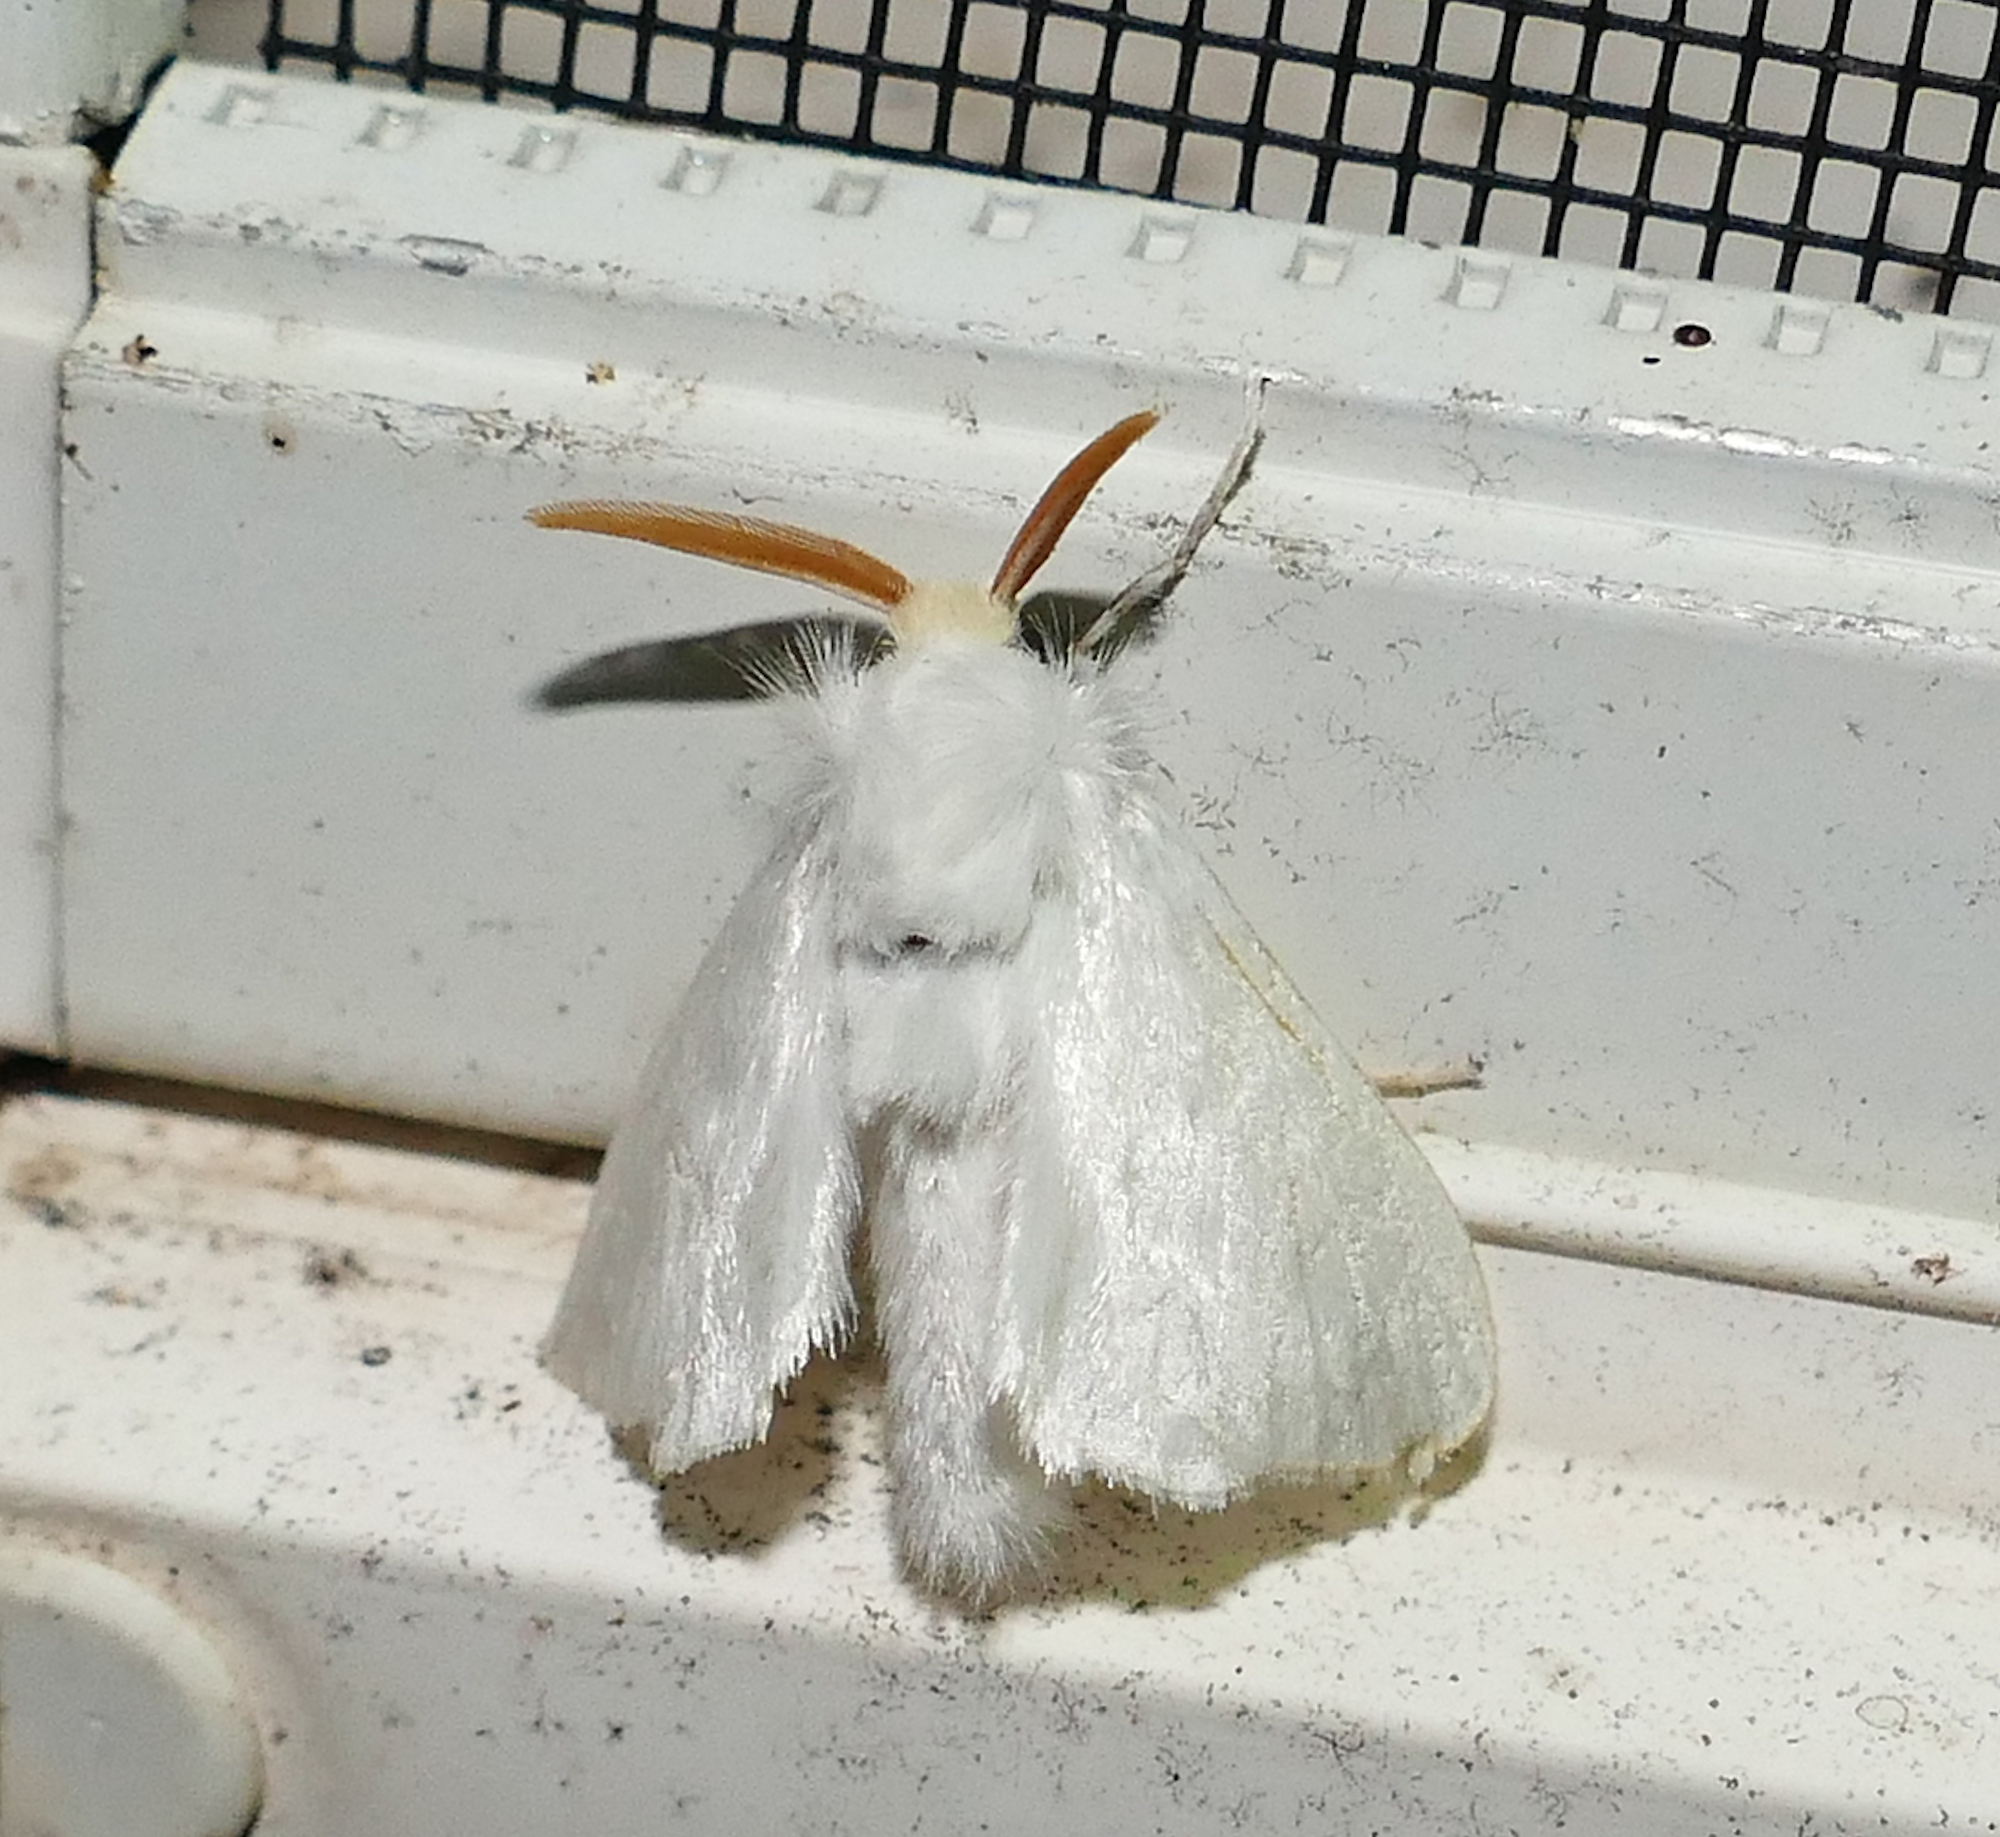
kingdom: Animalia
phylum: Arthropoda
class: Insecta
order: Lepidoptera
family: Megalopygidae
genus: Norape
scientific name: Norape cretata
